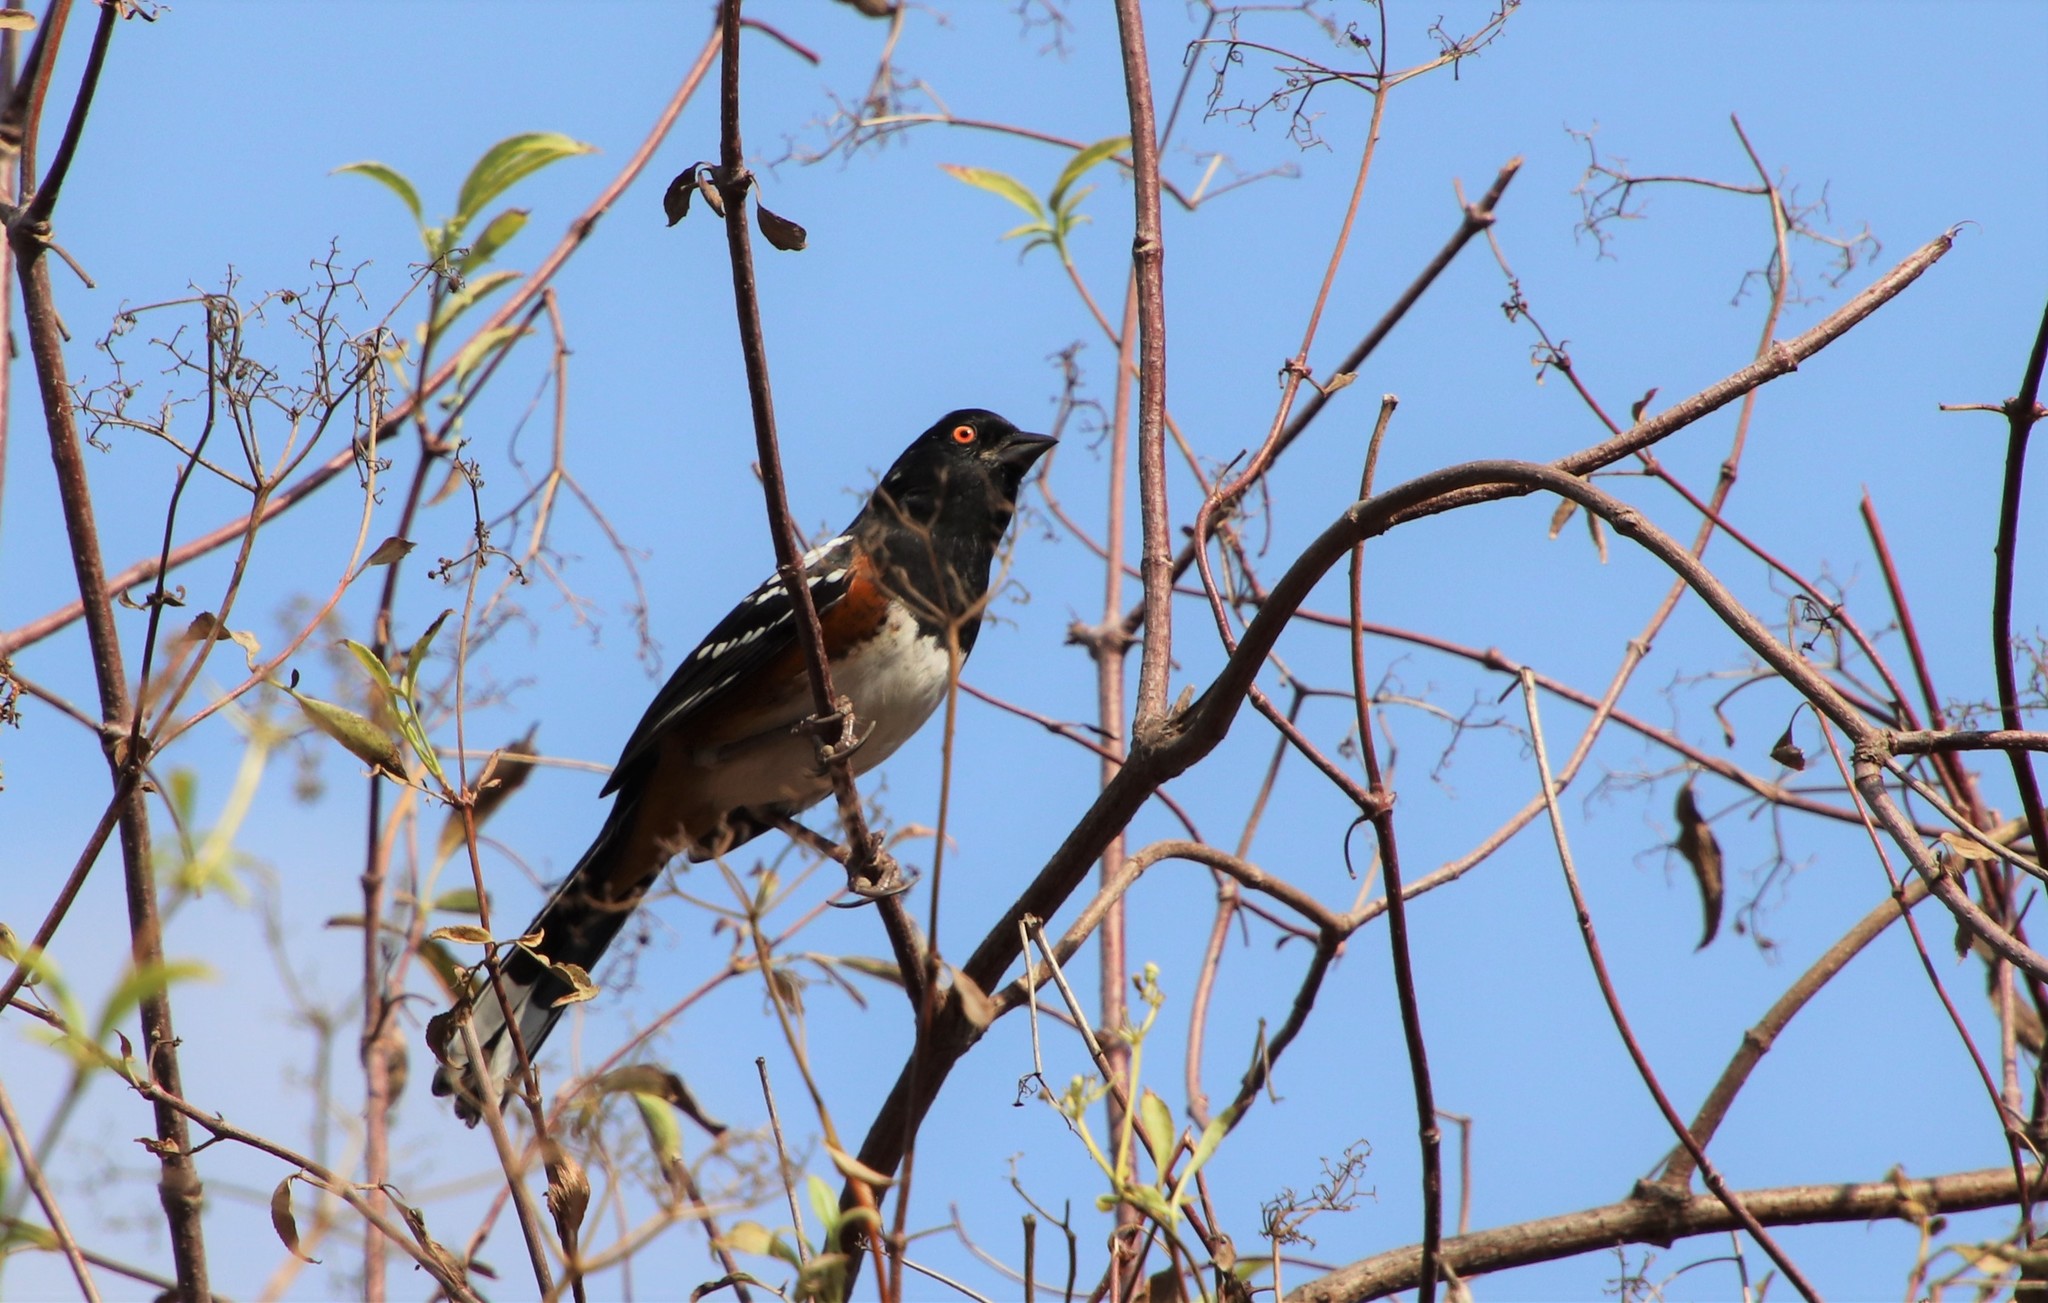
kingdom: Animalia
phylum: Chordata
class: Aves
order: Passeriformes
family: Passerellidae
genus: Pipilo
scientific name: Pipilo maculatus
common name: Spotted towhee
